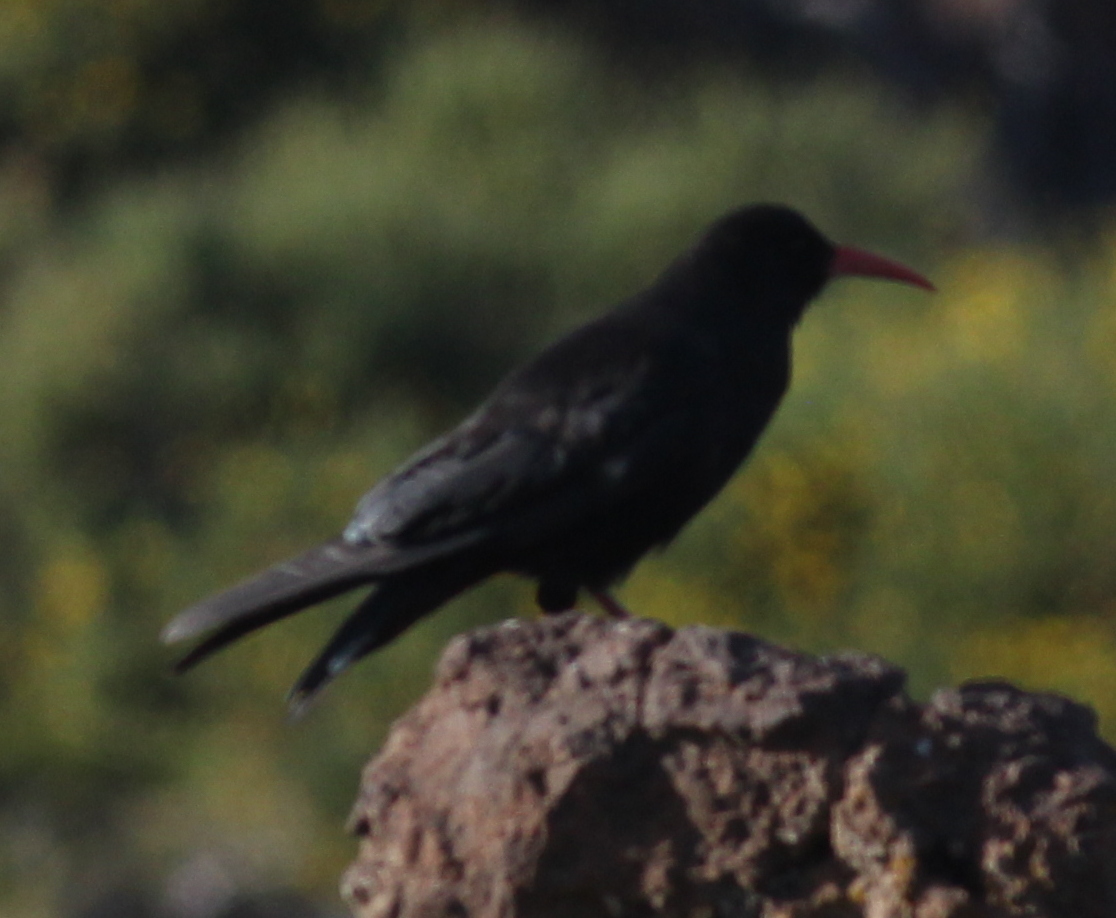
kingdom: Animalia
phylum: Chordata
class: Aves
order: Passeriformes
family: Corvidae
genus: Pyrrhocorax
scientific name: Pyrrhocorax pyrrhocorax
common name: Red-billed chough
